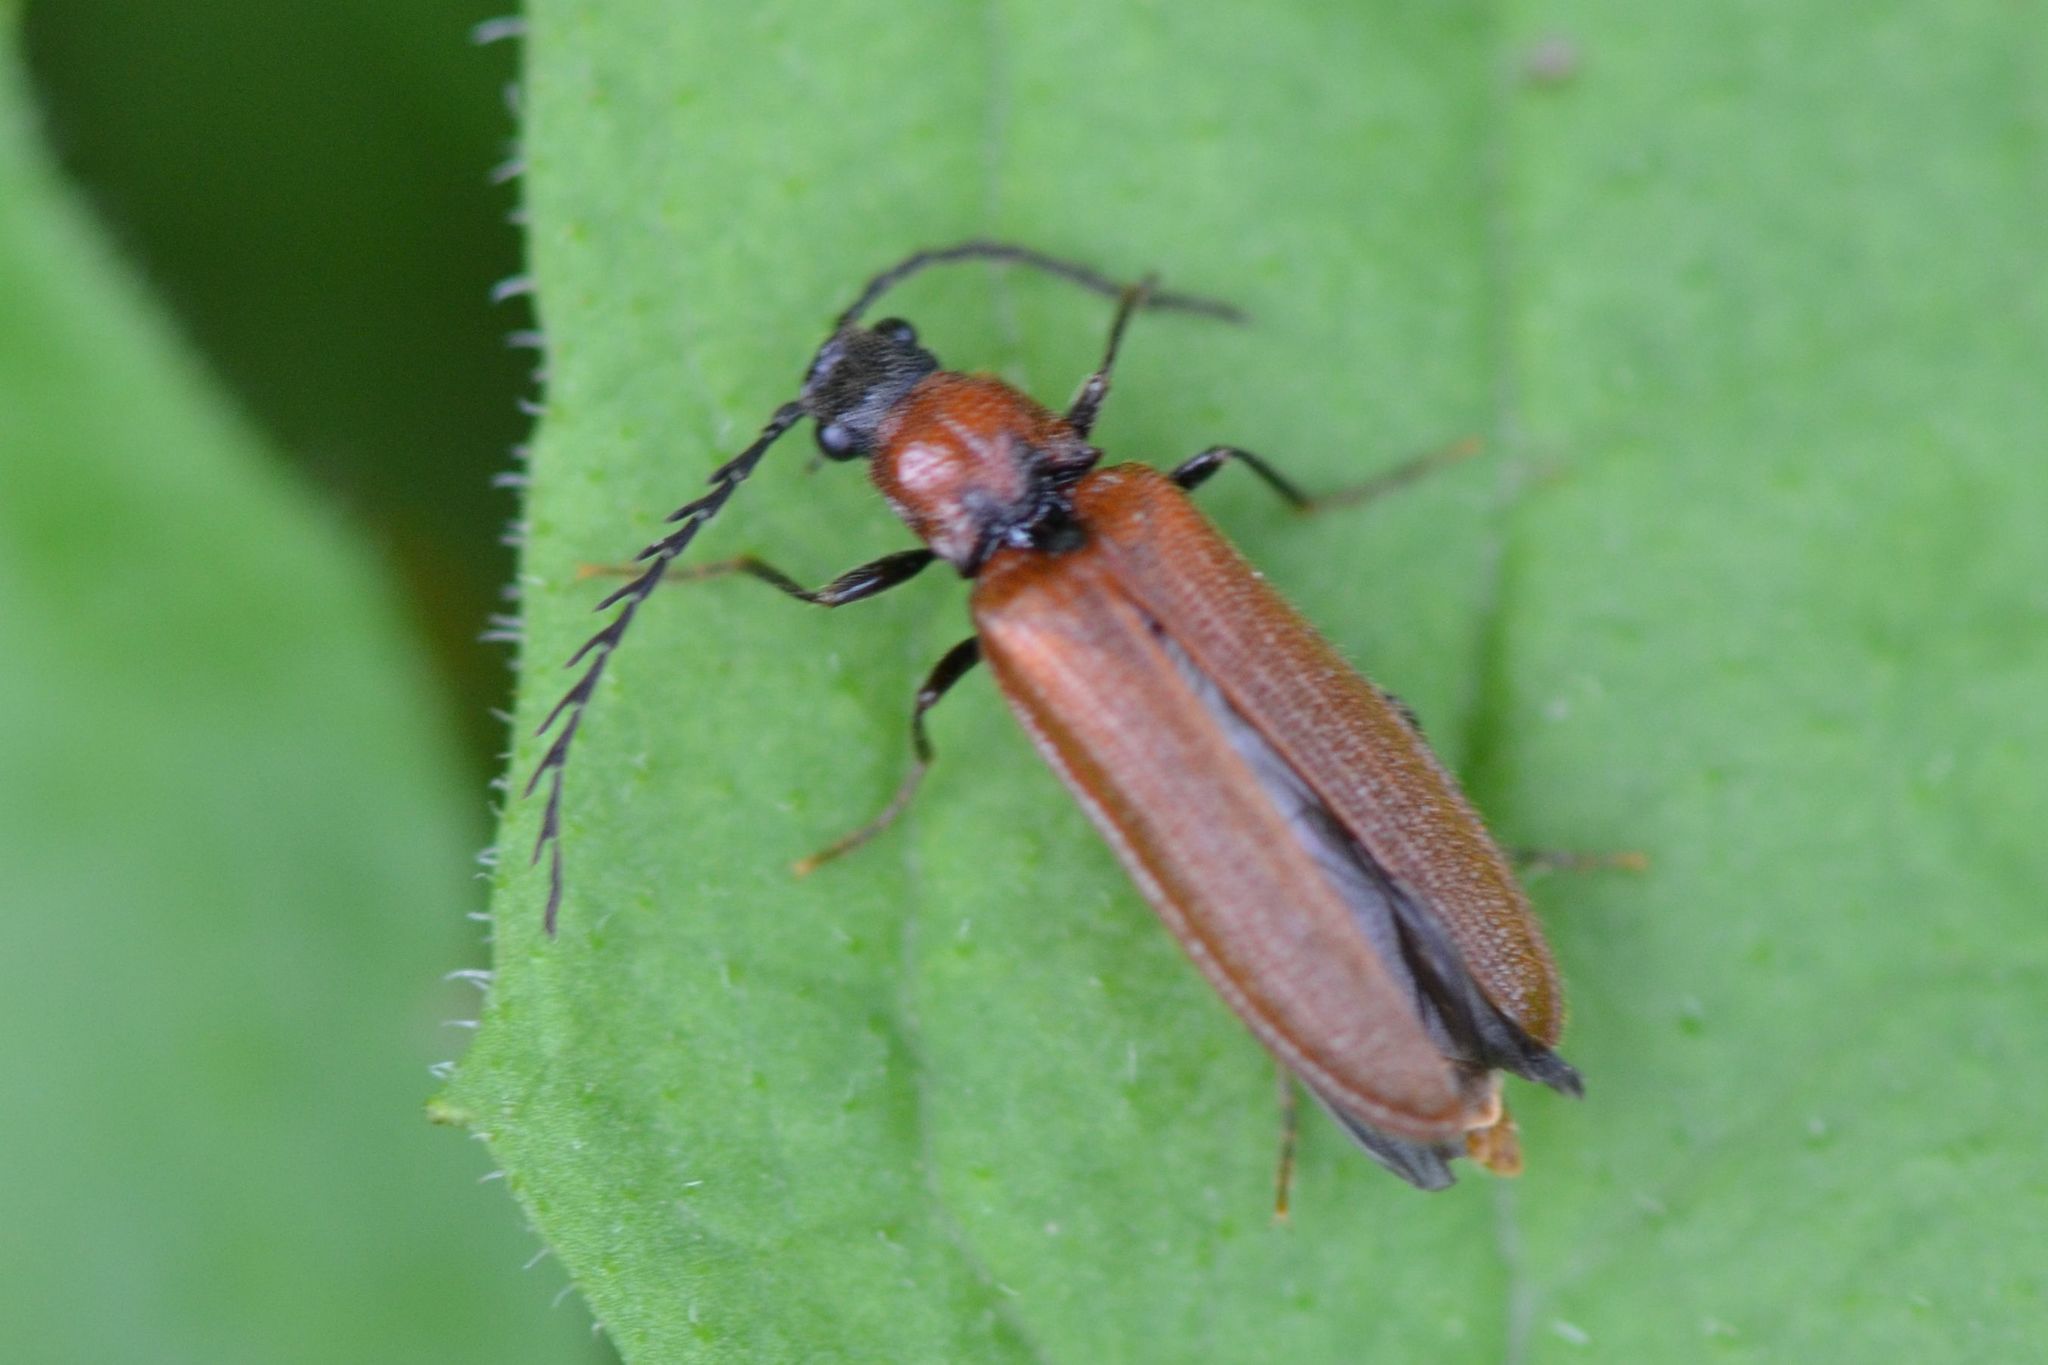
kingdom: Animalia
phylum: Arthropoda
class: Insecta
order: Coleoptera
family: Elateridae
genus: Denticollis
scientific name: Denticollis rubens
